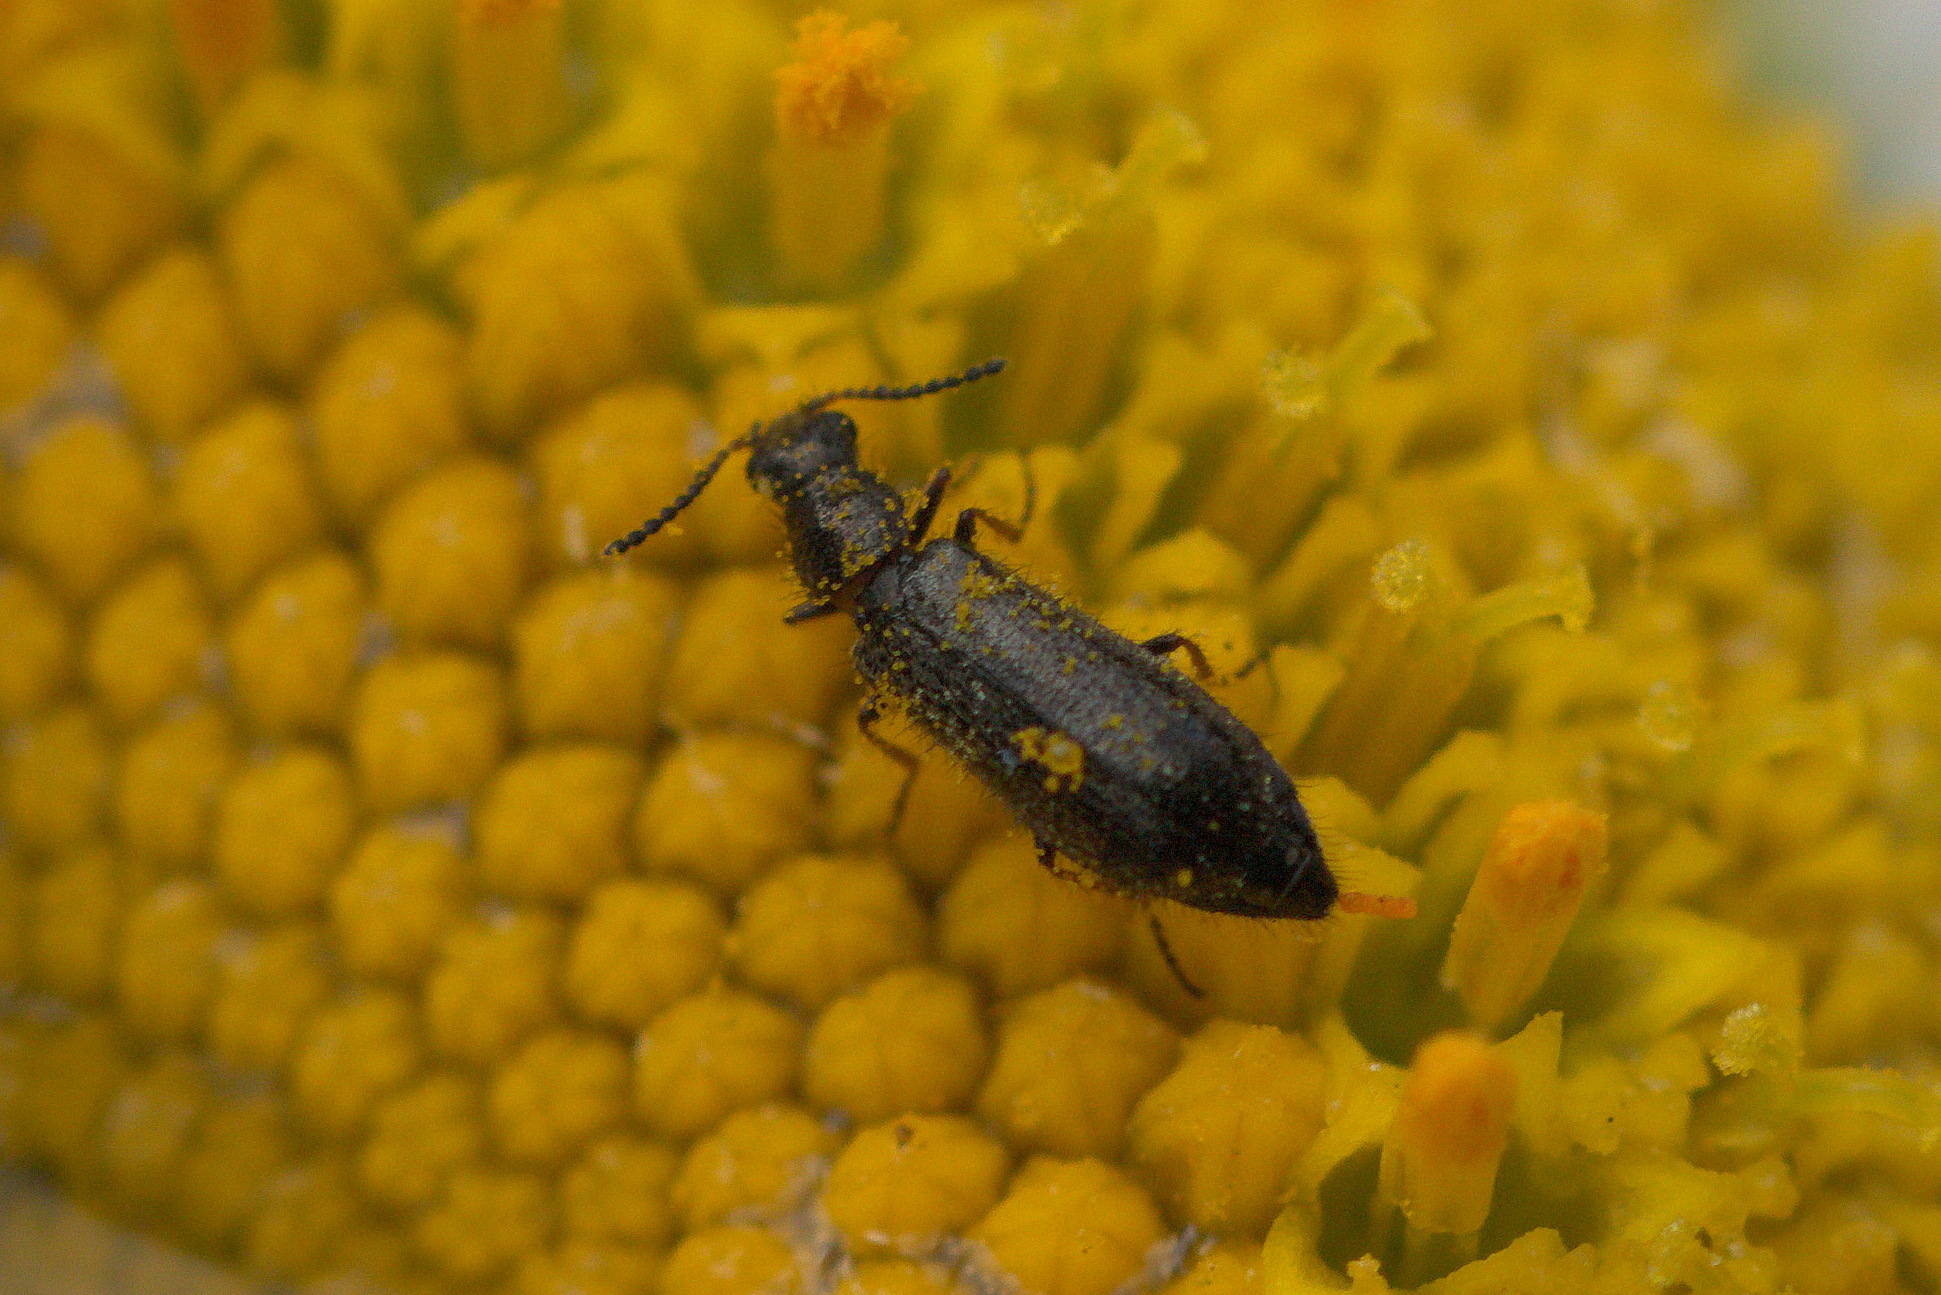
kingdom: Animalia
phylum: Arthropoda
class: Insecta
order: Coleoptera
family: Melyridae
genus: Dasytes
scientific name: Dasytes plumbeus
